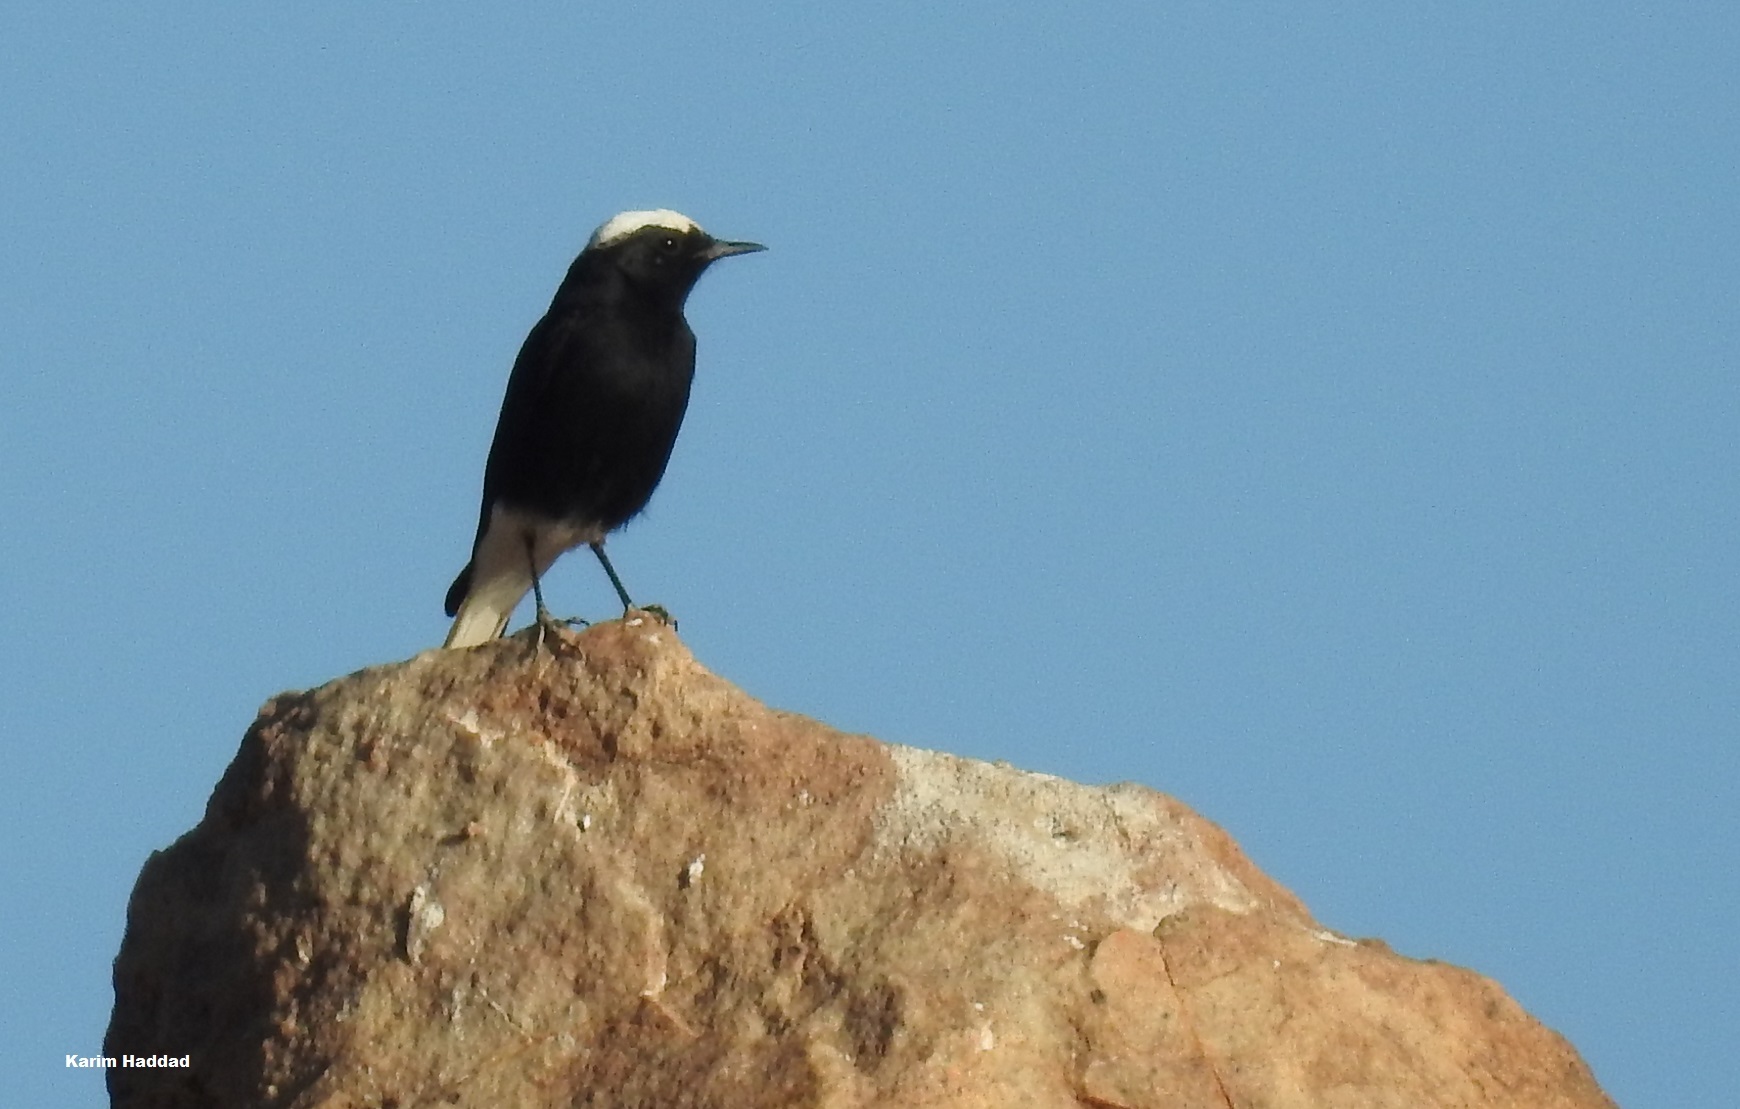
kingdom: Animalia
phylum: Chordata
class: Aves
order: Passeriformes
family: Muscicapidae
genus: Oenanthe
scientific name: Oenanthe leucopyga
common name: White-crowned wheatear
